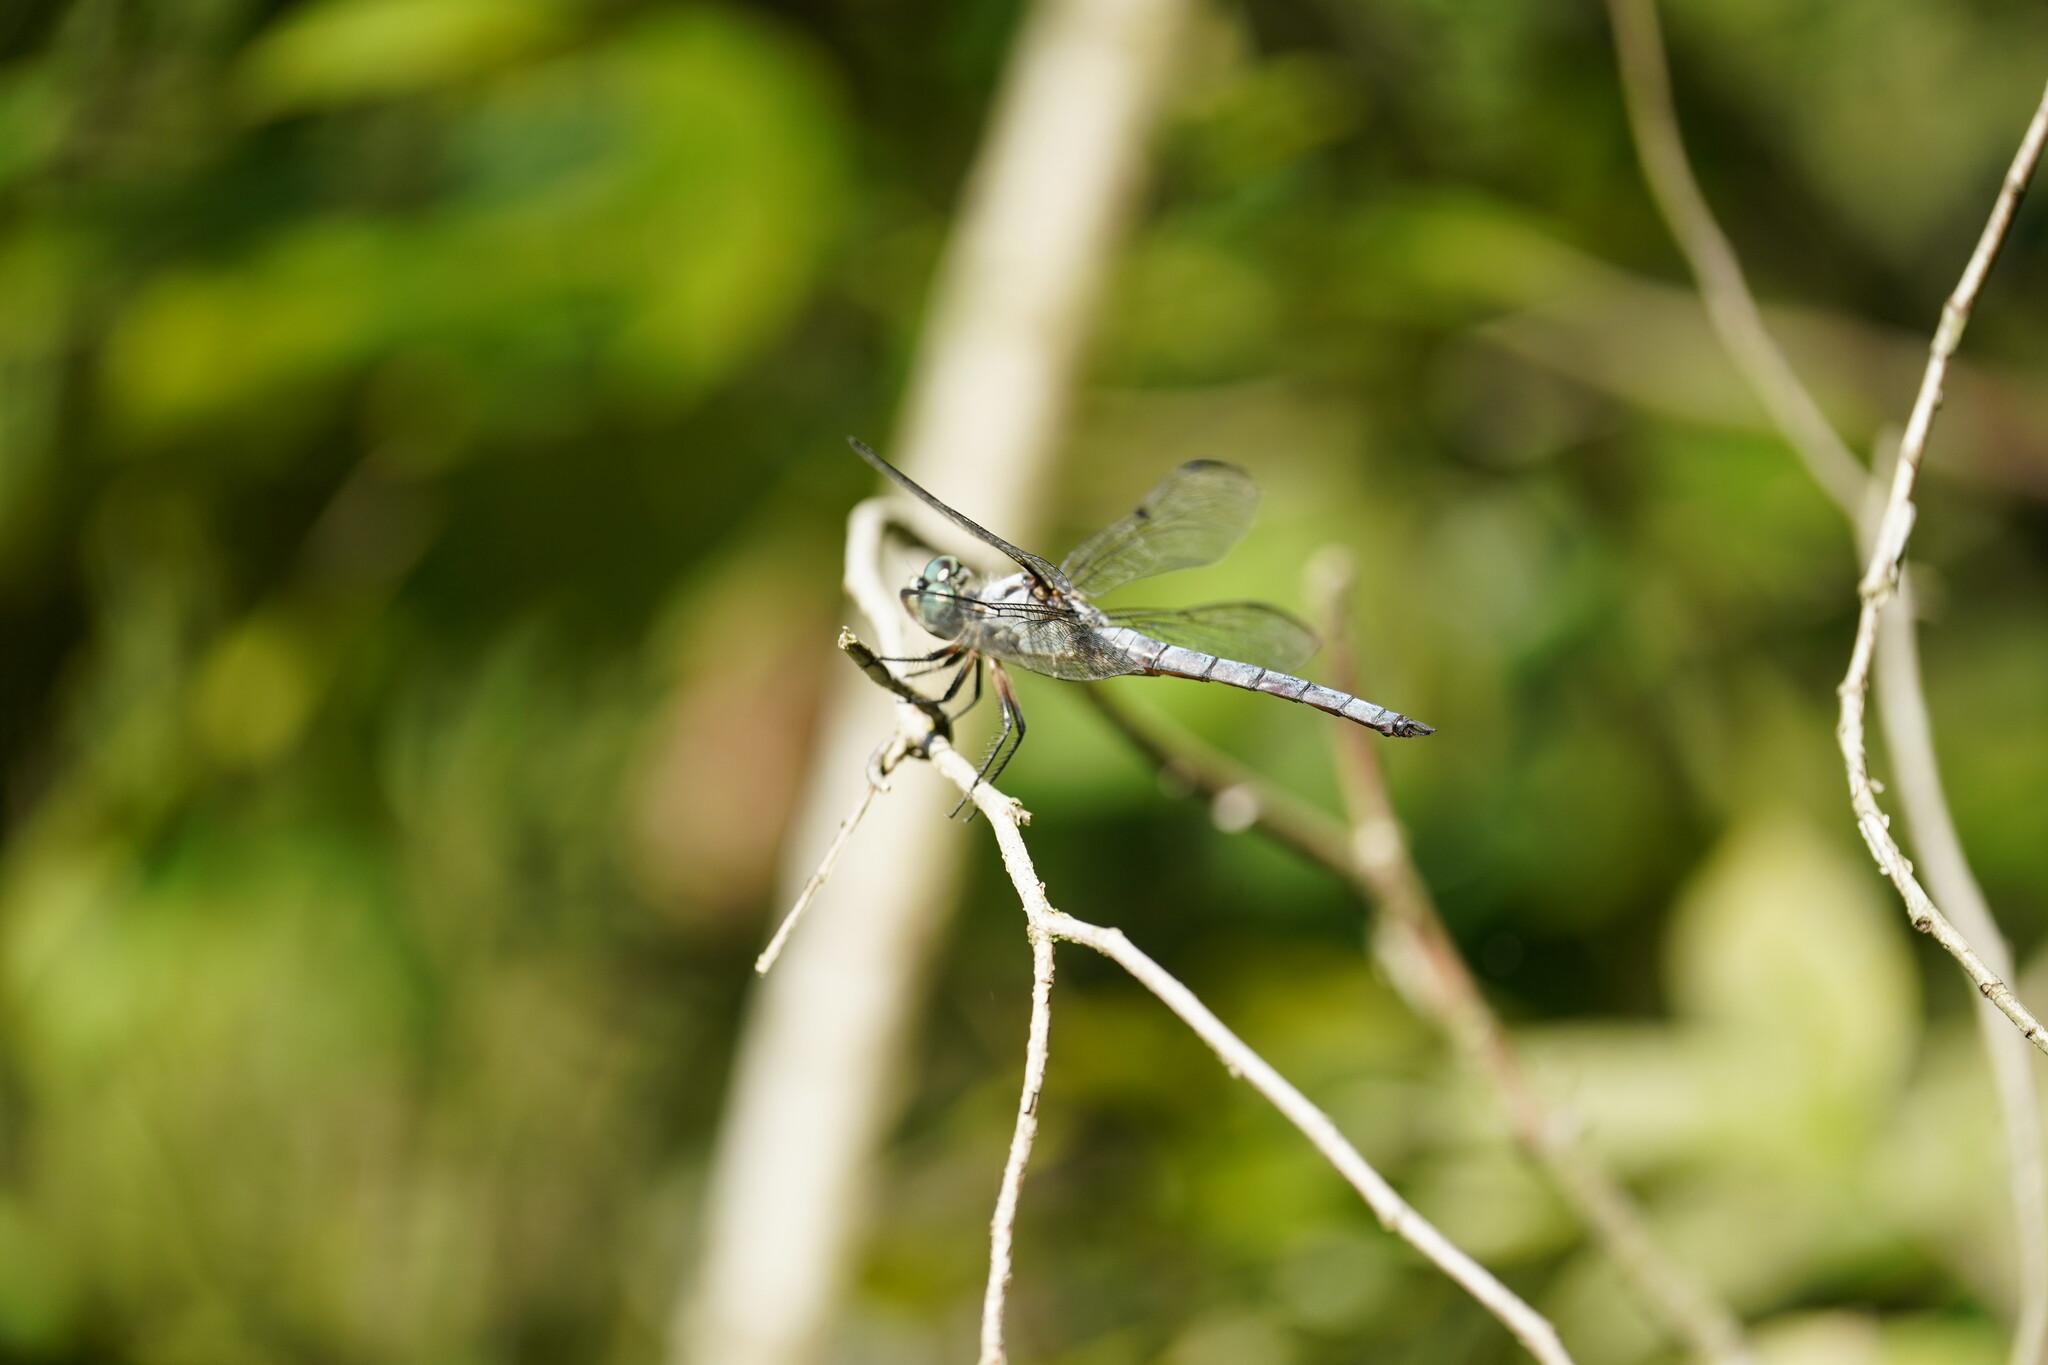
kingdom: Animalia
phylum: Arthropoda
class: Insecta
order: Odonata
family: Libellulidae
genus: Libellula
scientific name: Libellula vibrans
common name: Great blue skimmer
